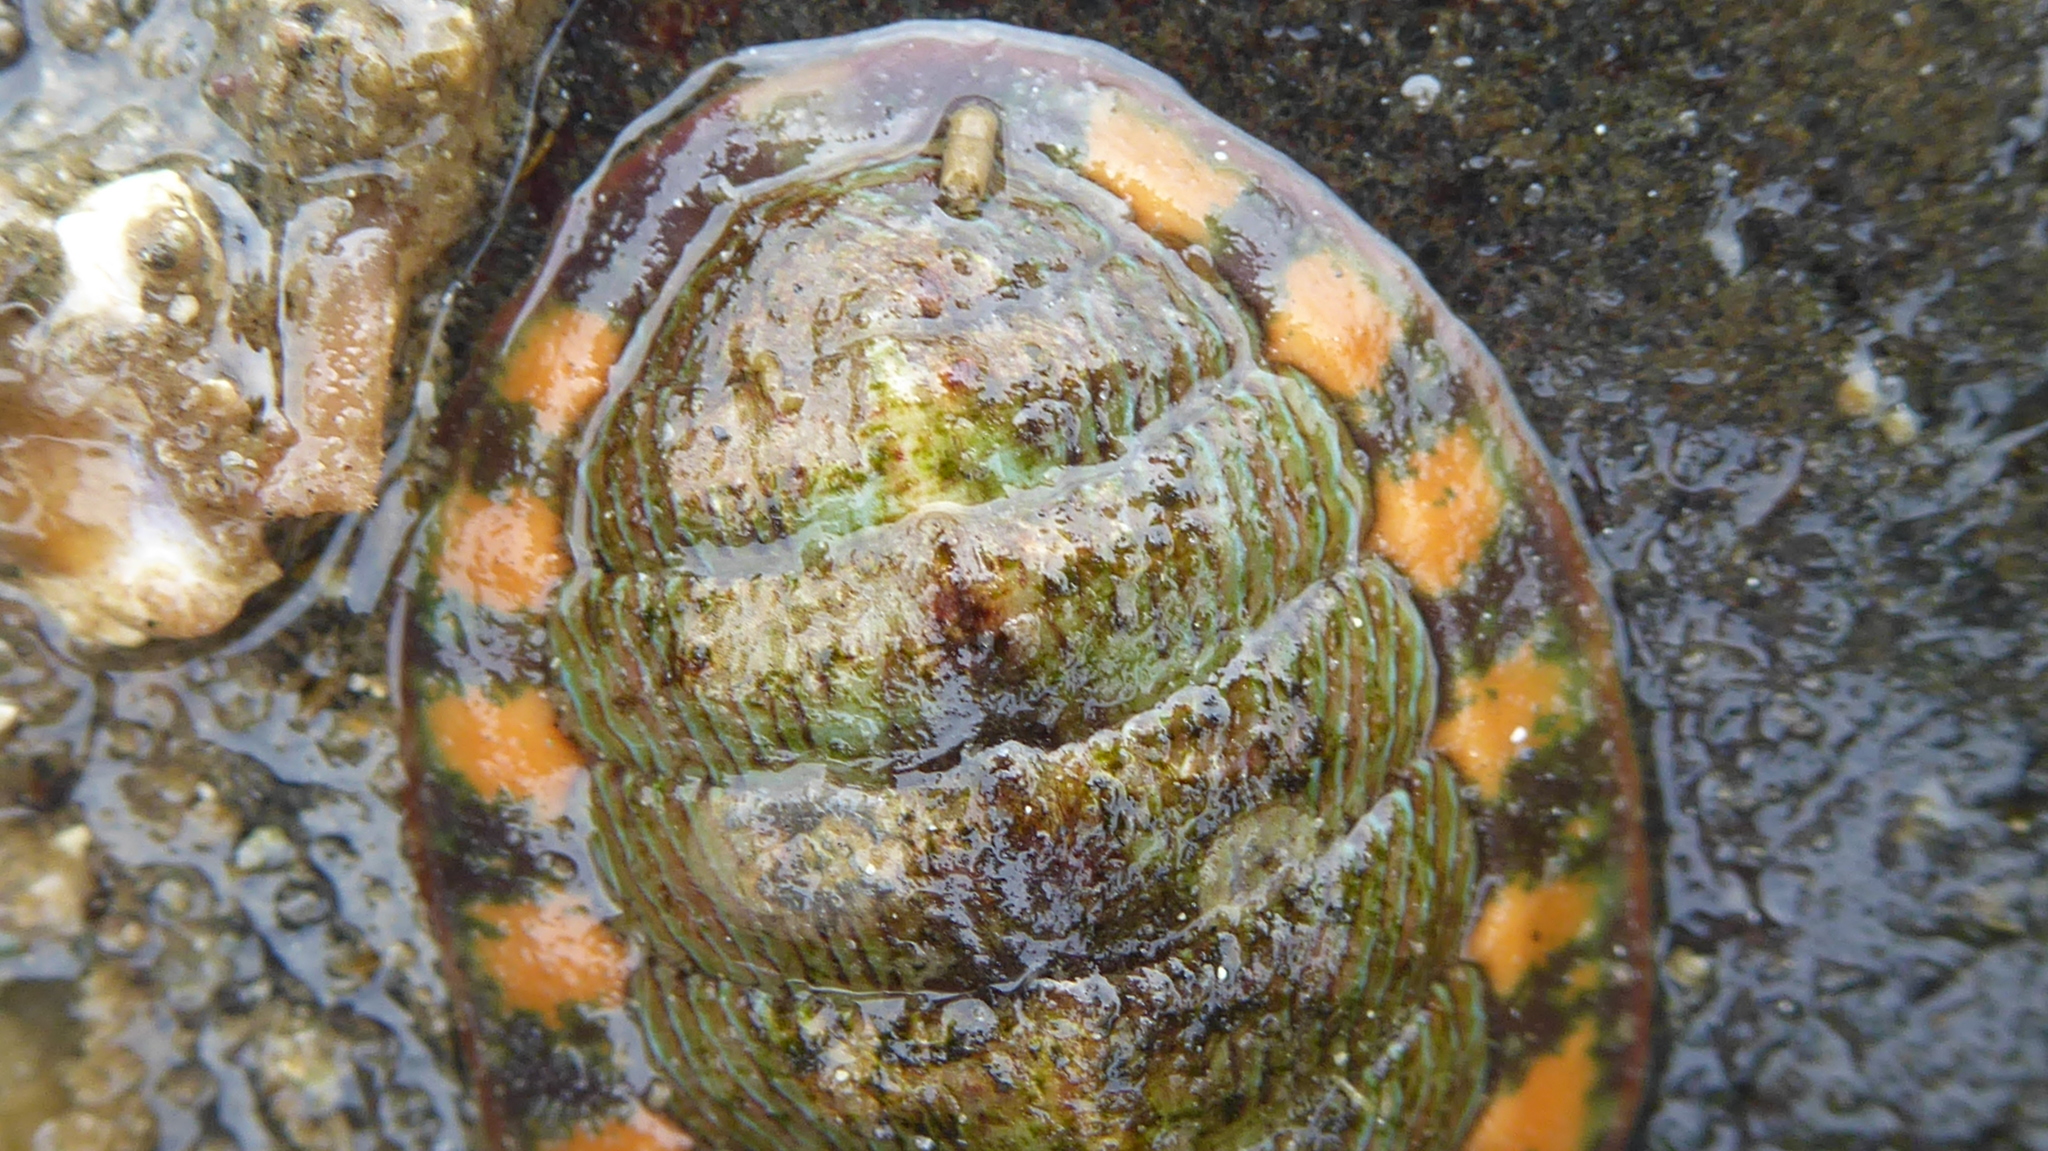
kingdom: Animalia
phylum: Mollusca
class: Polyplacophora
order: Chitonida
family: Tonicellidae
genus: Tonicella
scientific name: Tonicella lineata
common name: Lined chiton
